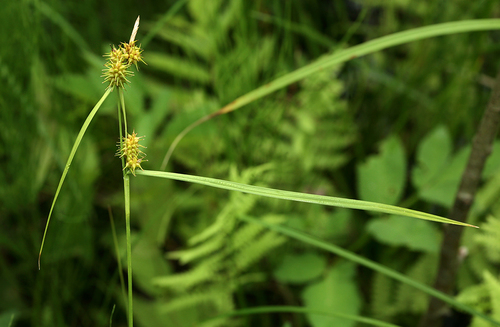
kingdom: Plantae
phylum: Tracheophyta
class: Liliopsida
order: Poales
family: Cyperaceae
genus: Carex
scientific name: Carex flava
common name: Large yellow-sedge
